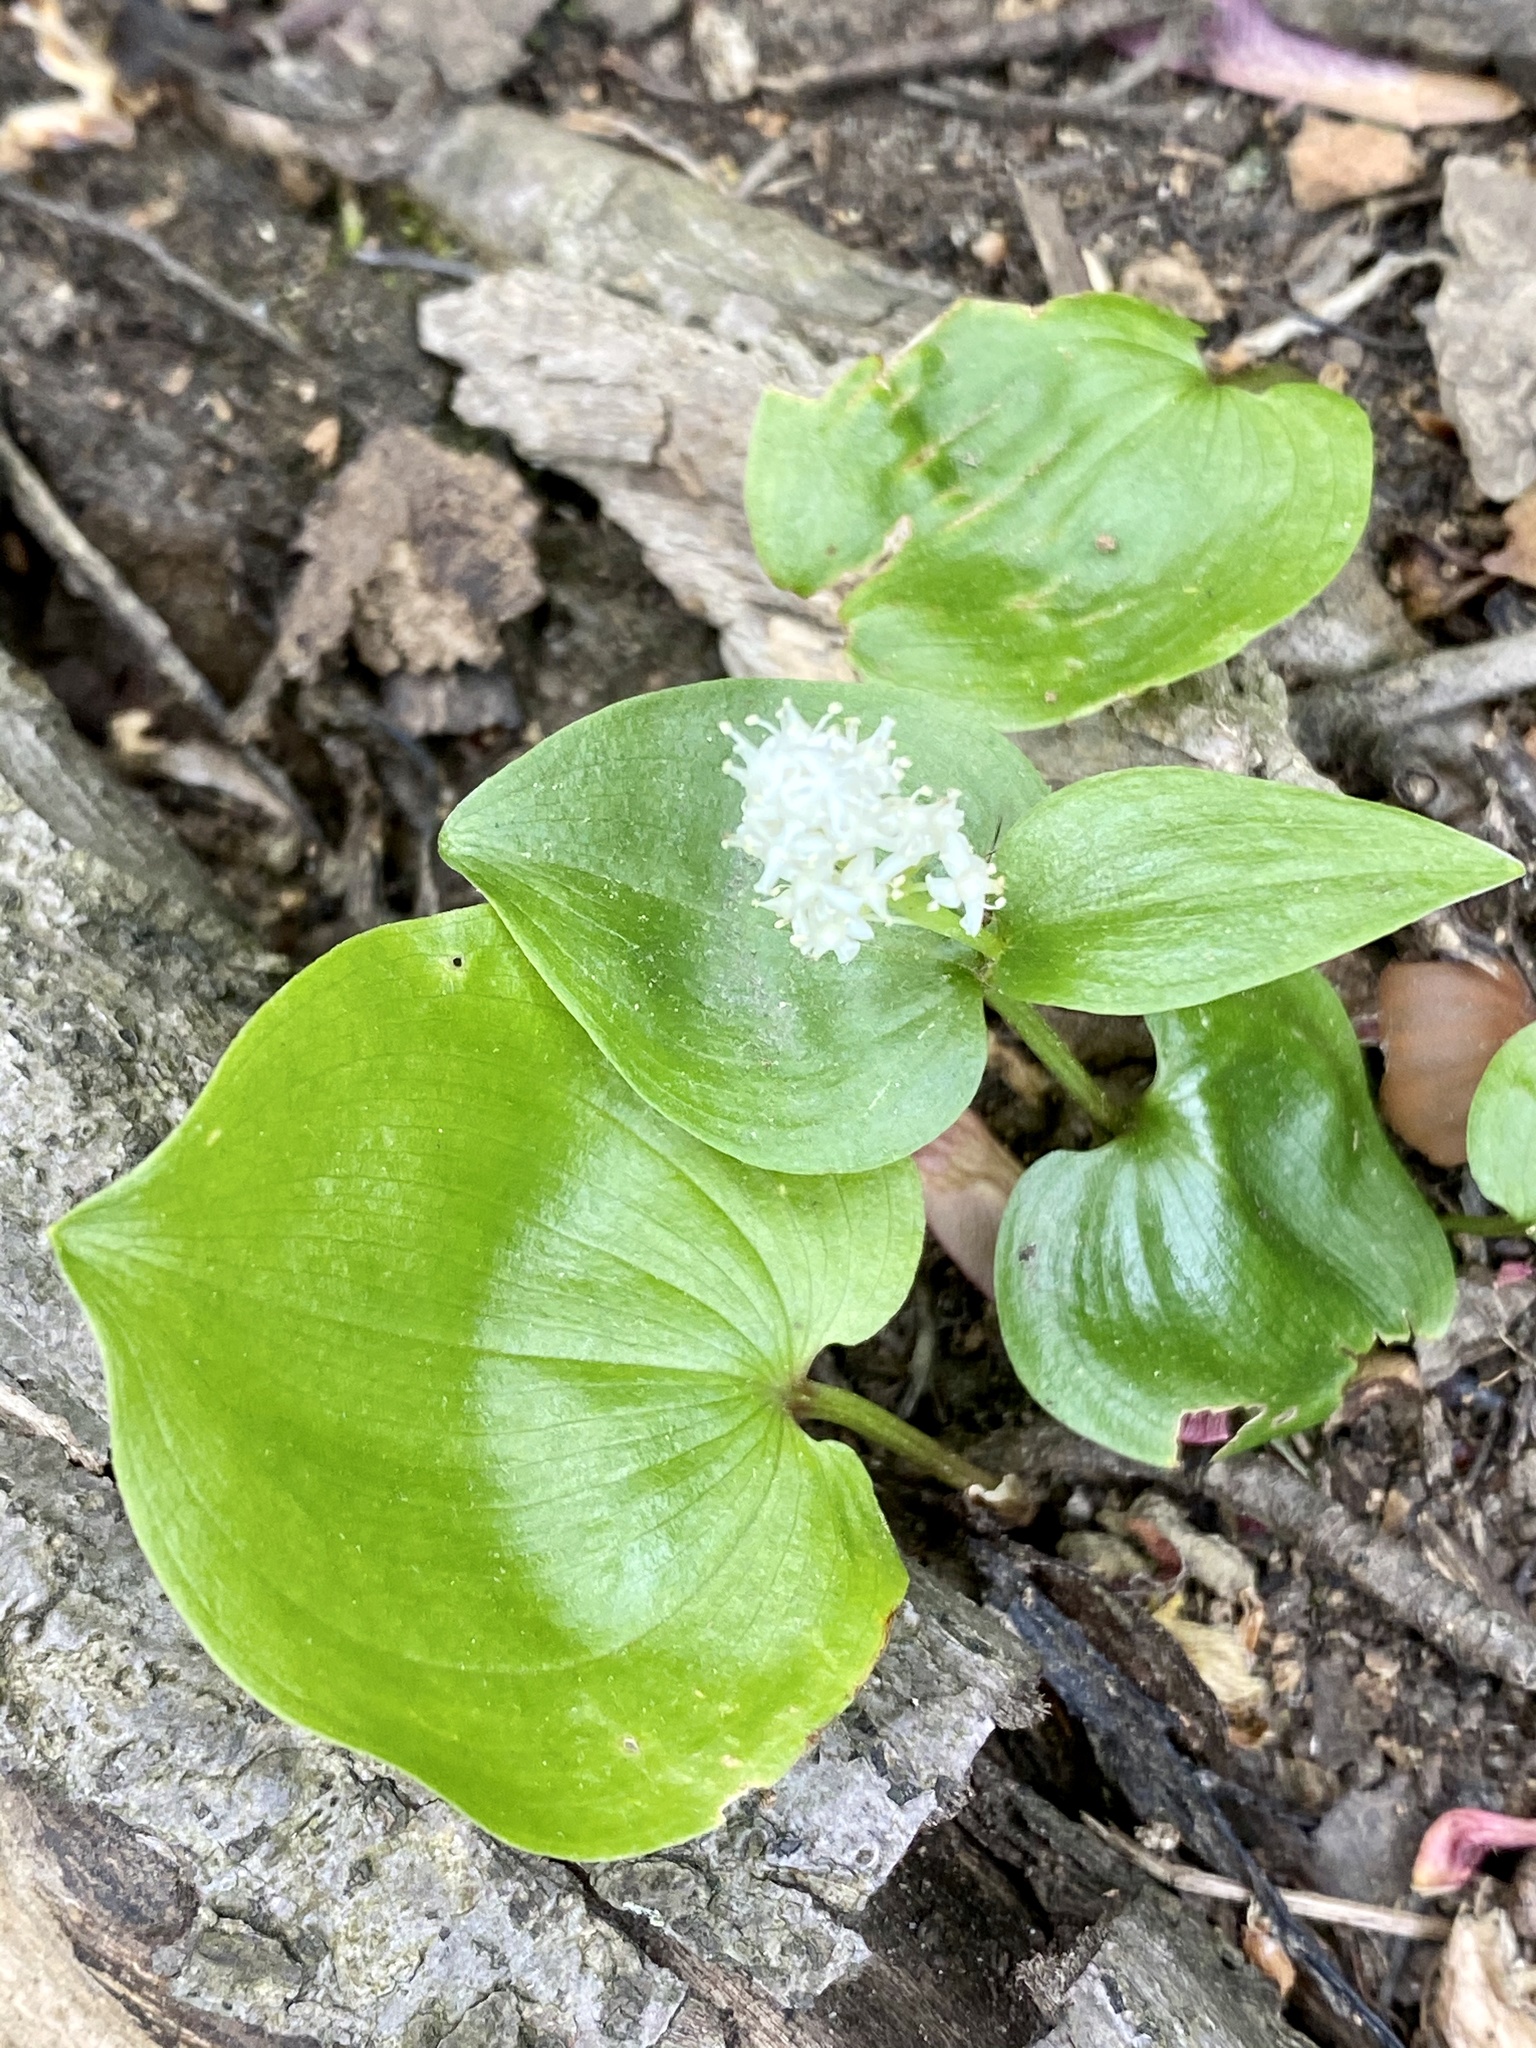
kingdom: Plantae
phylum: Tracheophyta
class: Liliopsida
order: Asparagales
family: Asparagaceae
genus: Maianthemum
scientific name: Maianthemum canadense
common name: False lily-of-the-valley
